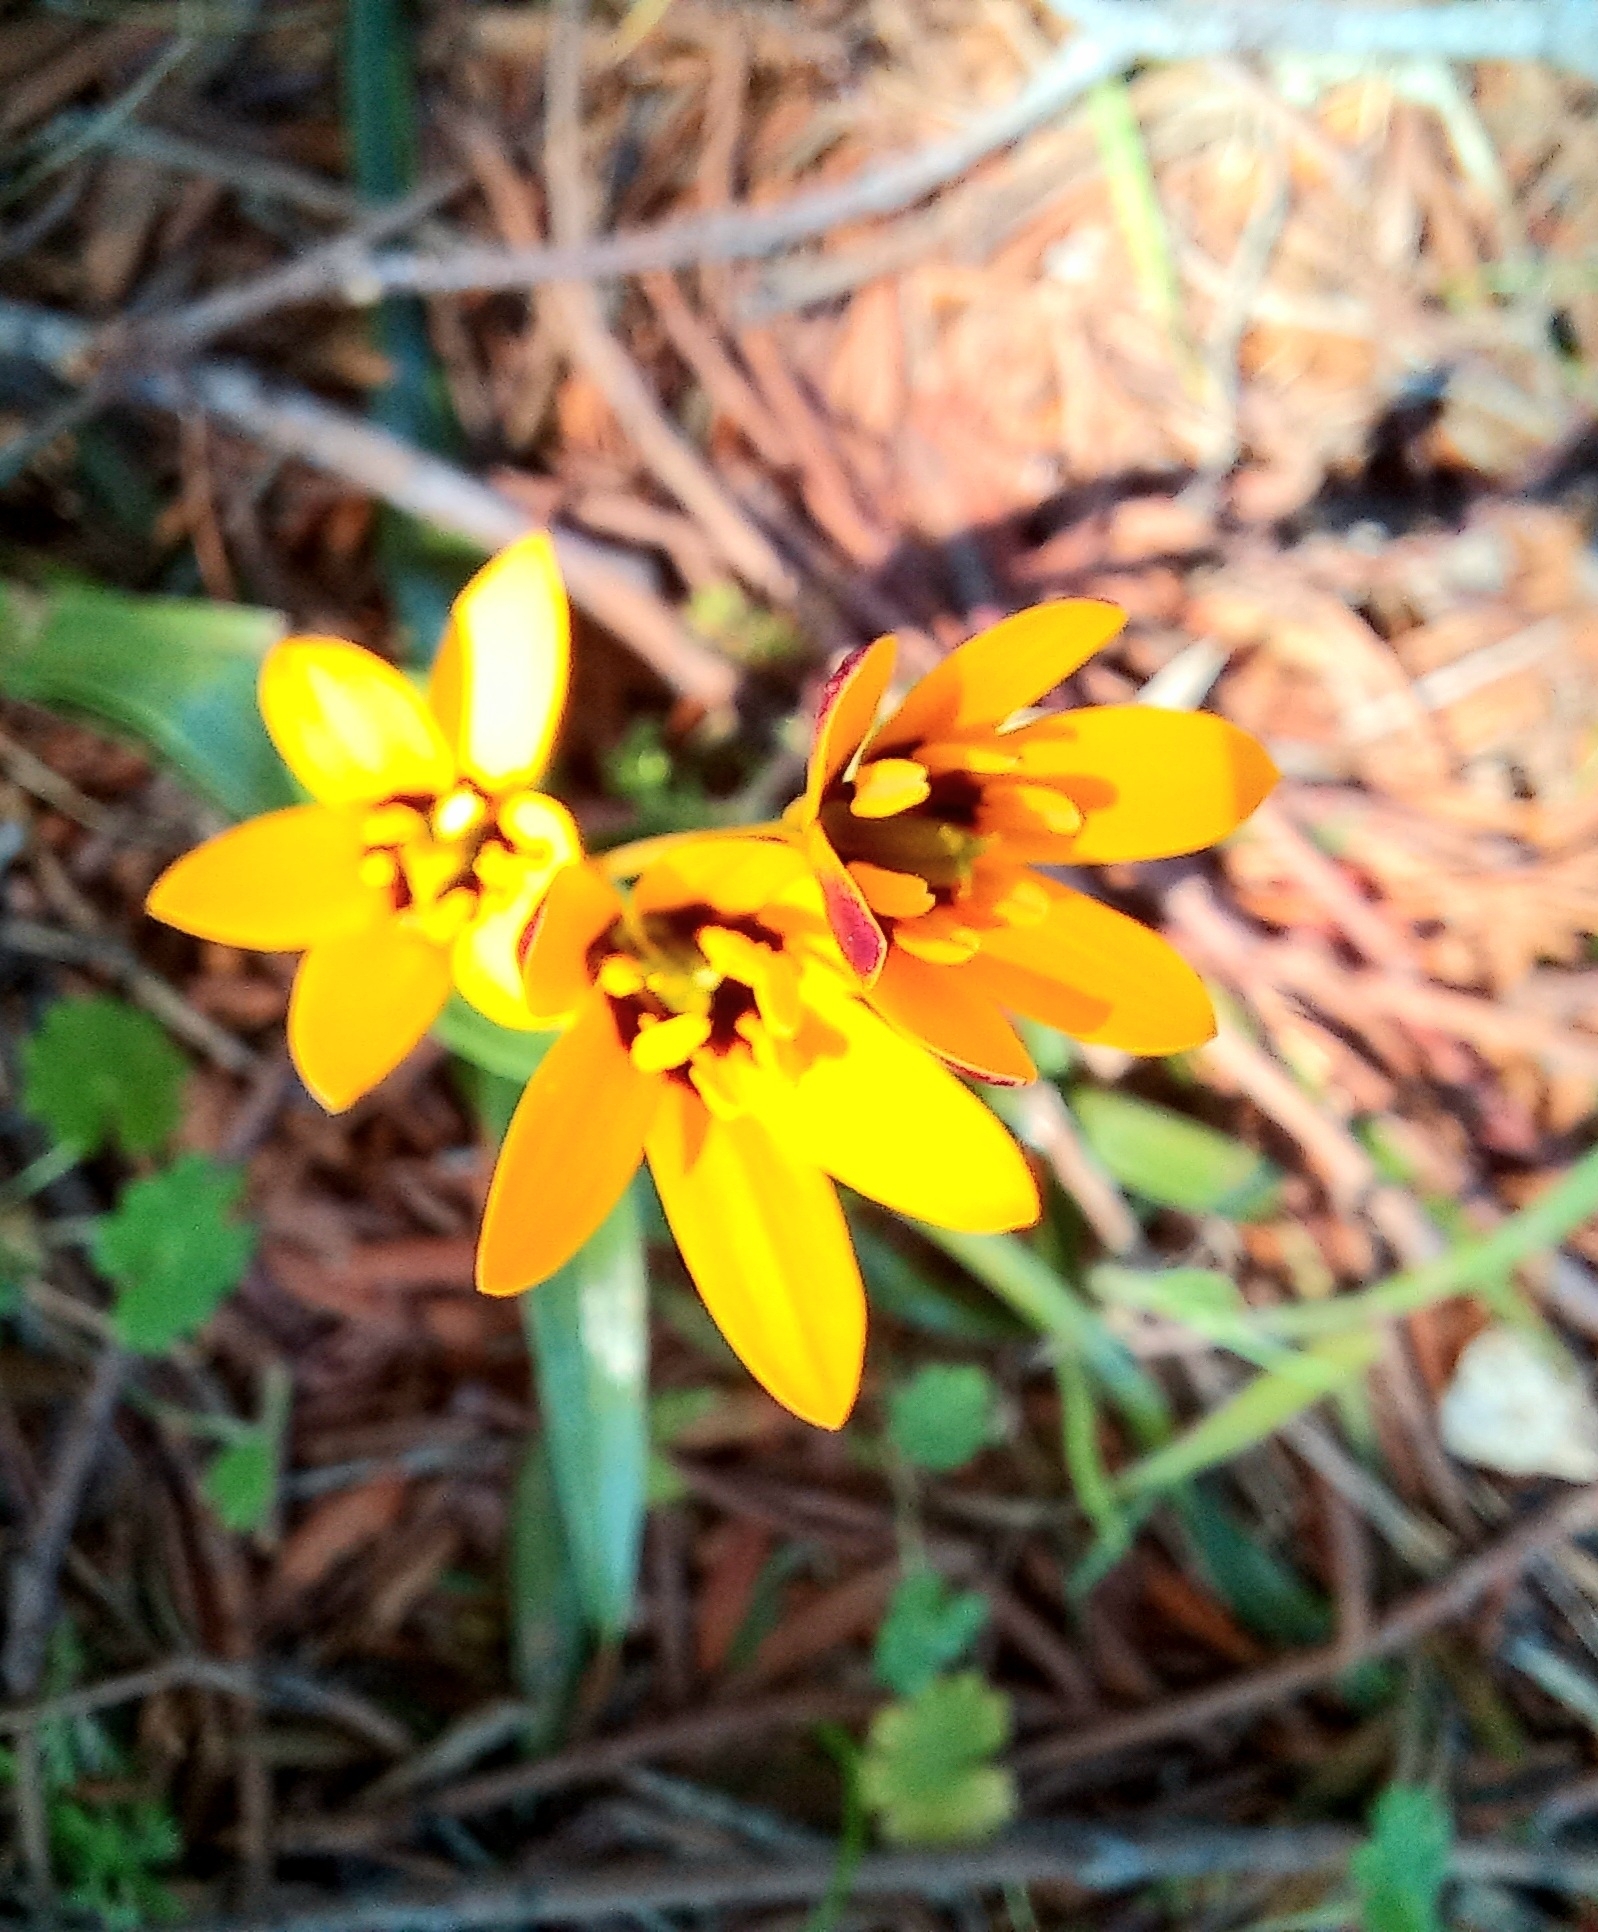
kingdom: Plantae
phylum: Tracheophyta
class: Liliopsida
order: Liliales
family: Colchicaceae
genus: Baeometra
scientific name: Baeometra uniflora
